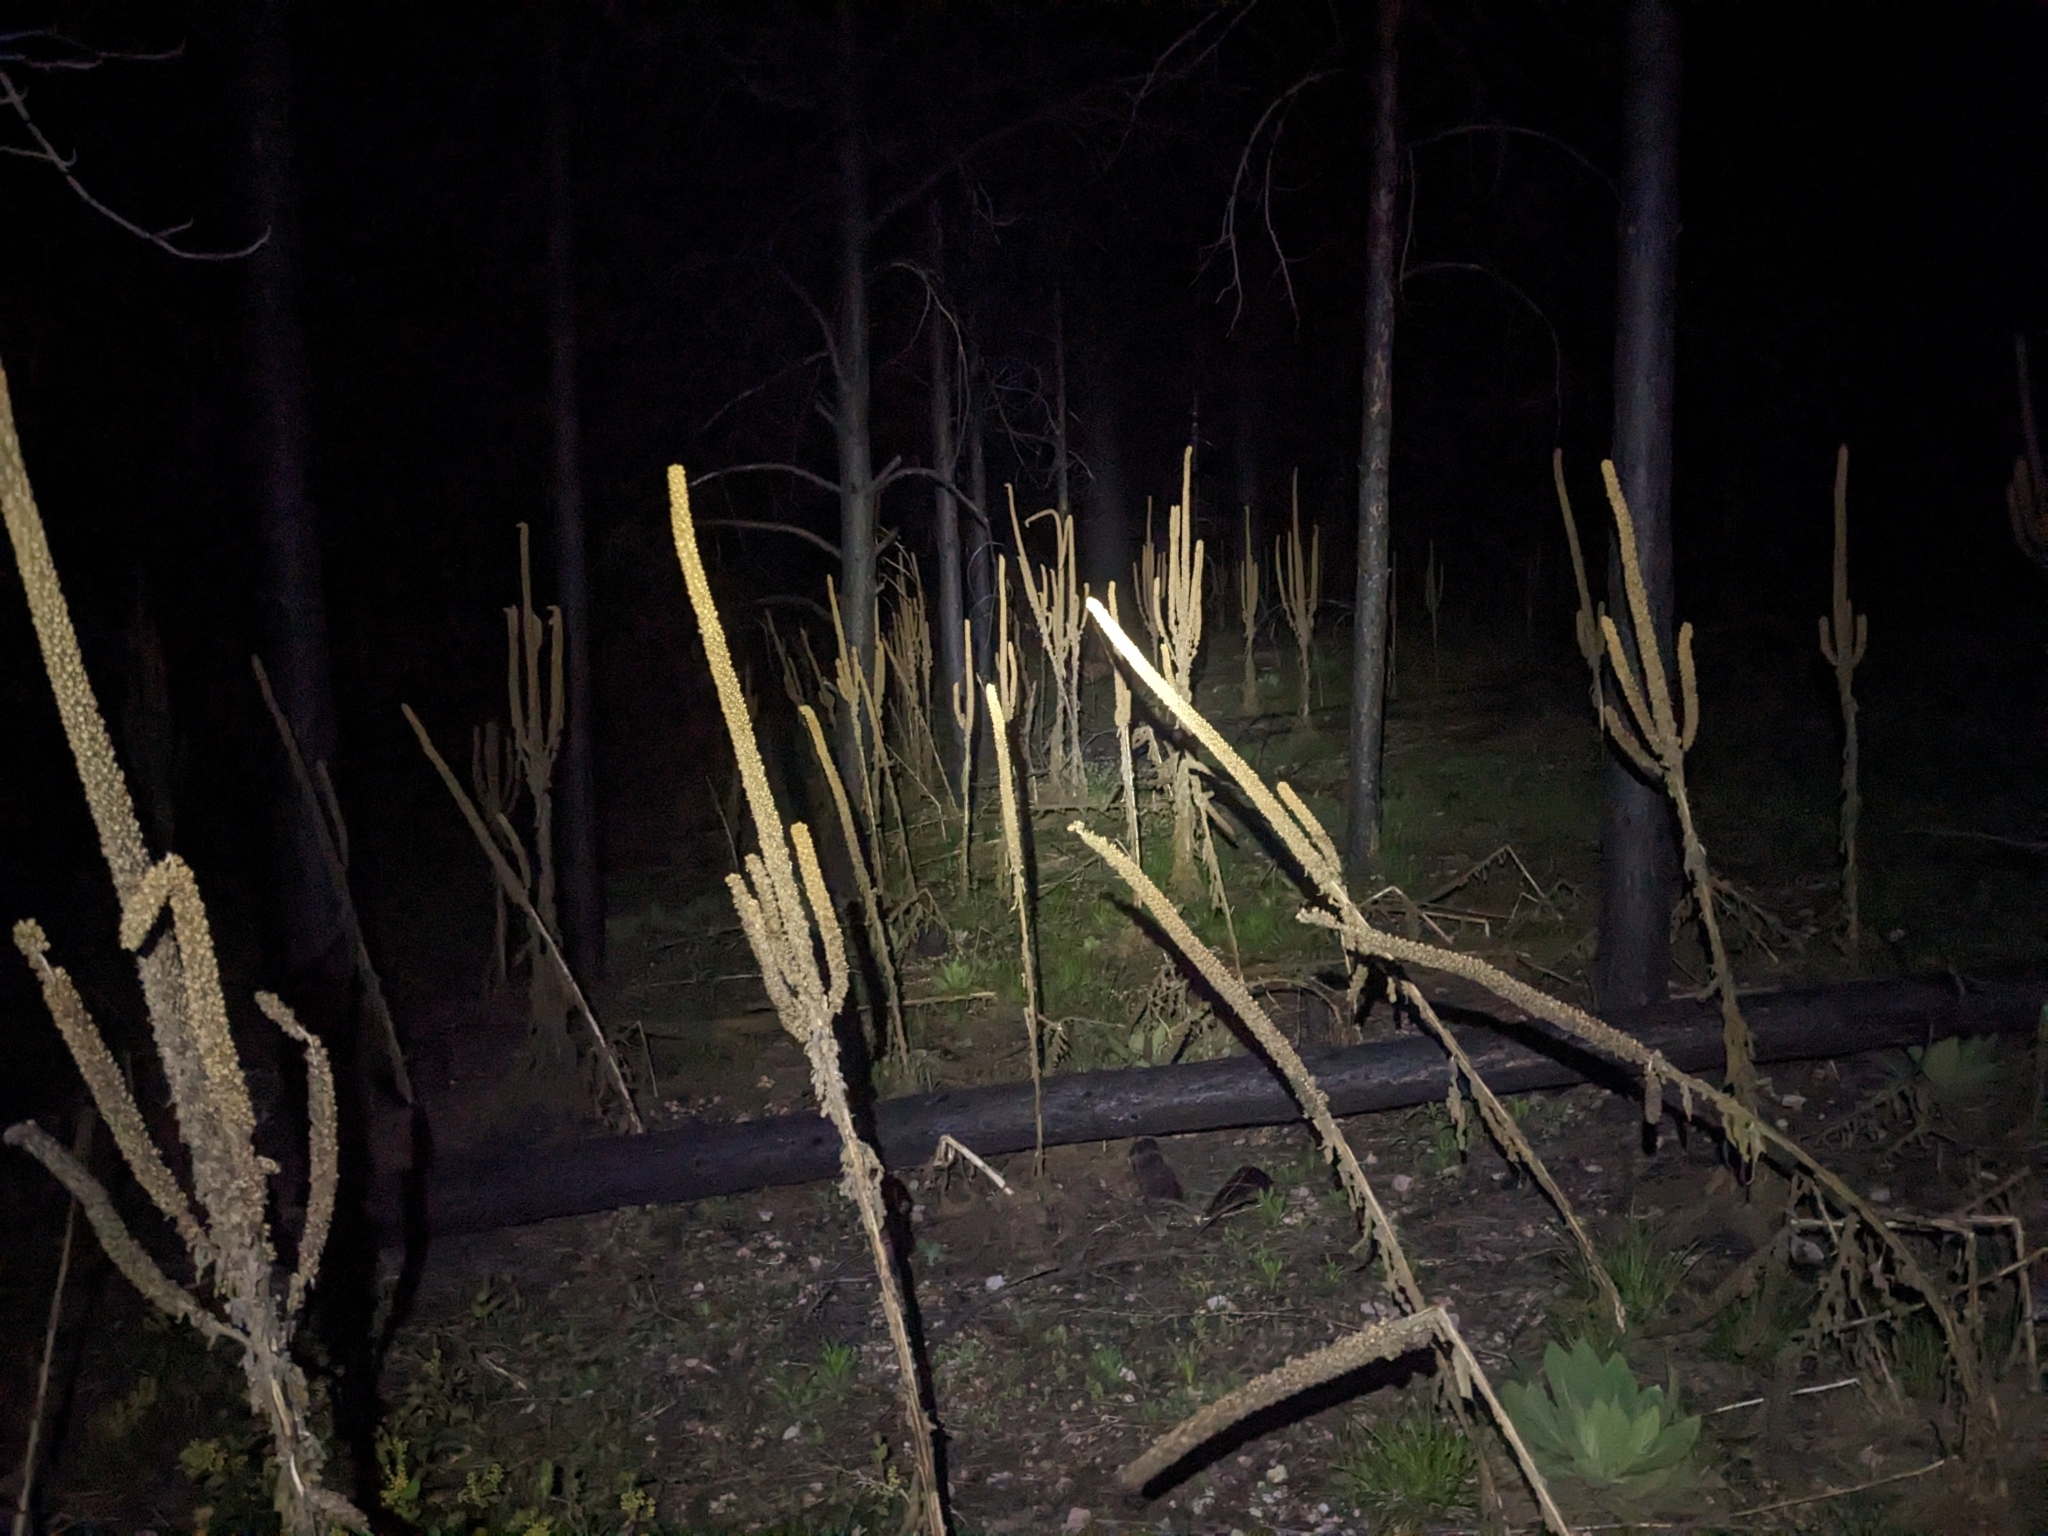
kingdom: Plantae
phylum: Tracheophyta
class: Magnoliopsida
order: Lamiales
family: Scrophulariaceae
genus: Verbascum
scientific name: Verbascum thapsus
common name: Common mullein
